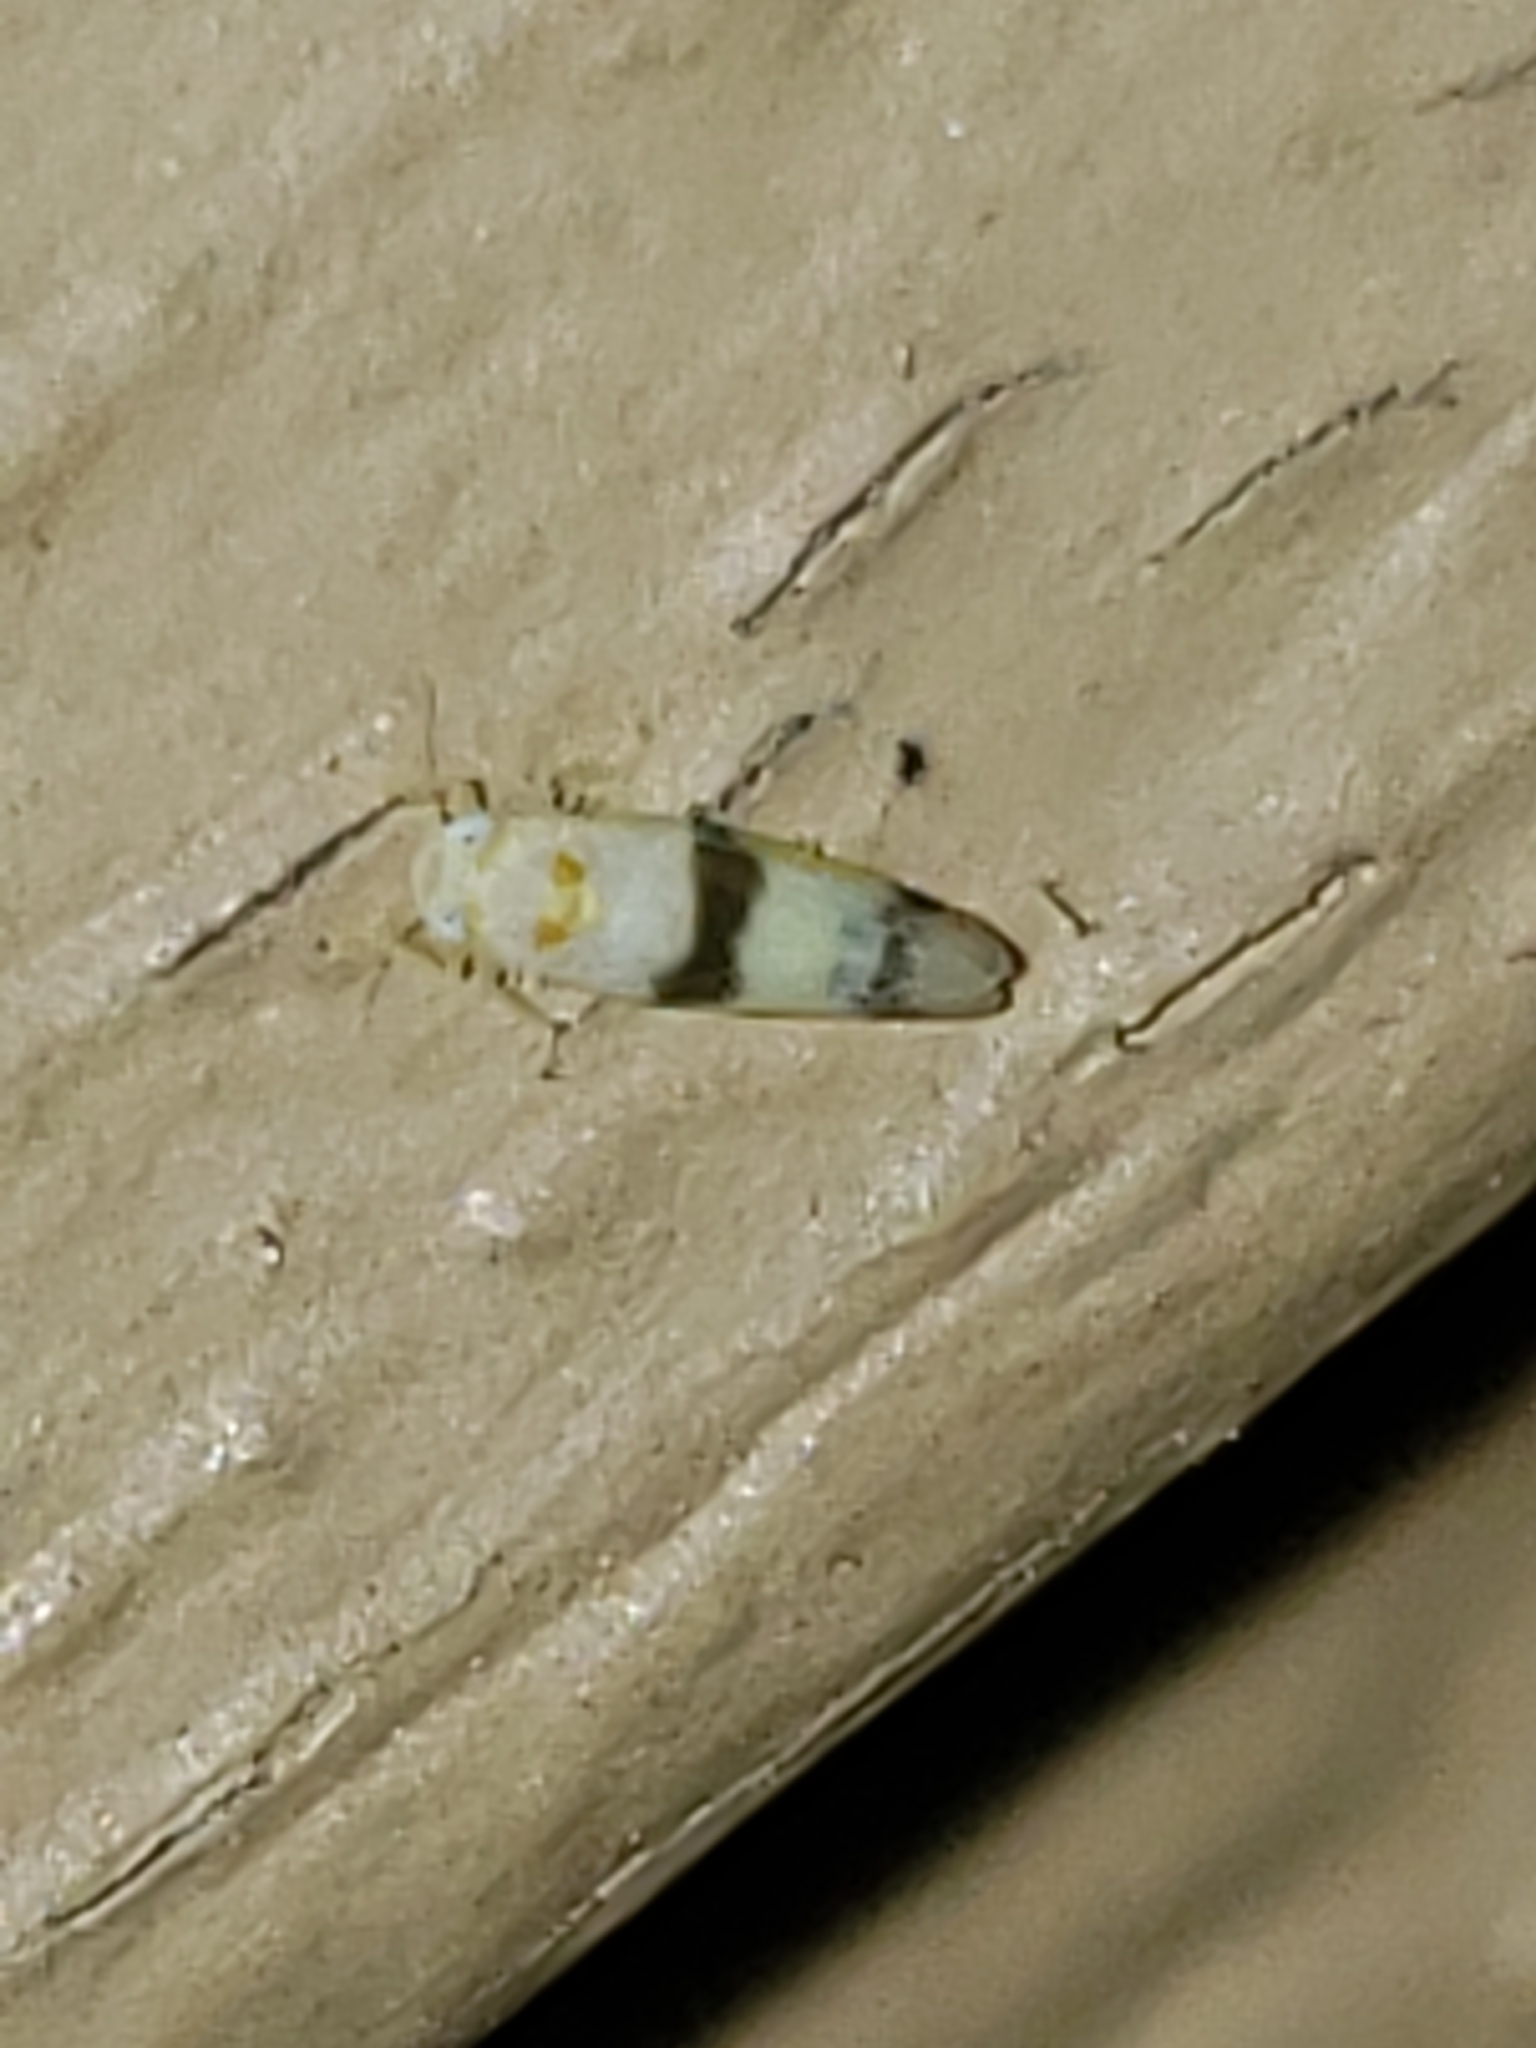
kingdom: Animalia
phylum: Arthropoda
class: Insecta
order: Hemiptera
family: Cicadellidae
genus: Empoa
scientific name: Empoa gillettei
